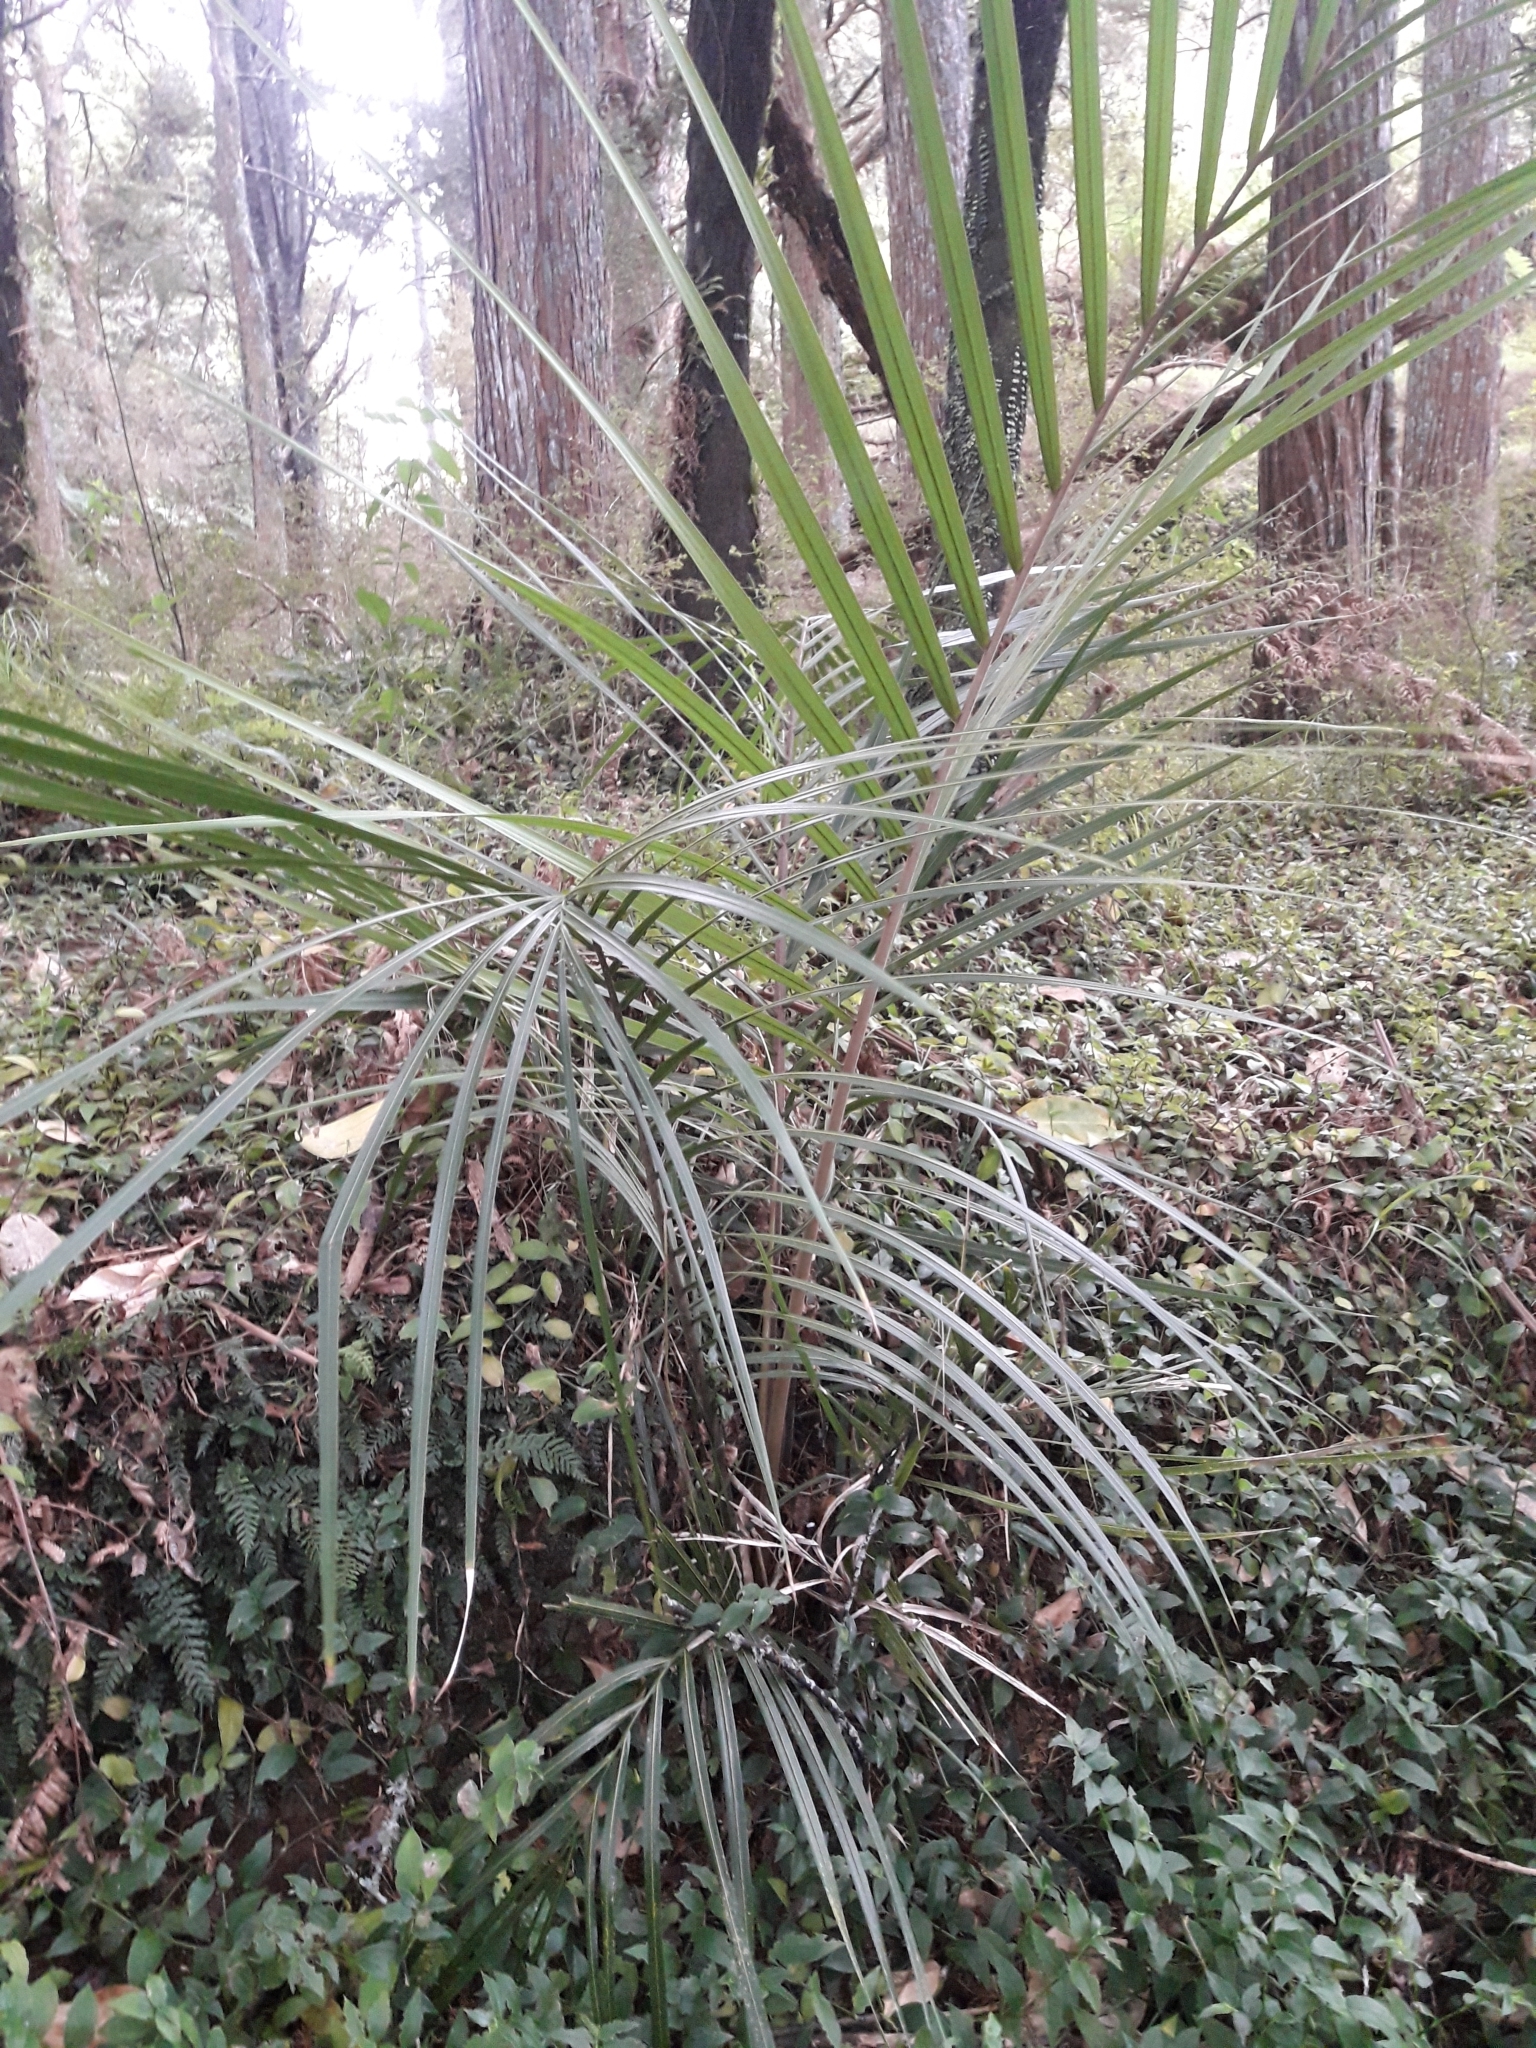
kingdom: Plantae
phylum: Tracheophyta
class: Liliopsida
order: Arecales
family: Arecaceae
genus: Rhopalostylis
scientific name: Rhopalostylis sapida
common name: Feather-duster palm
